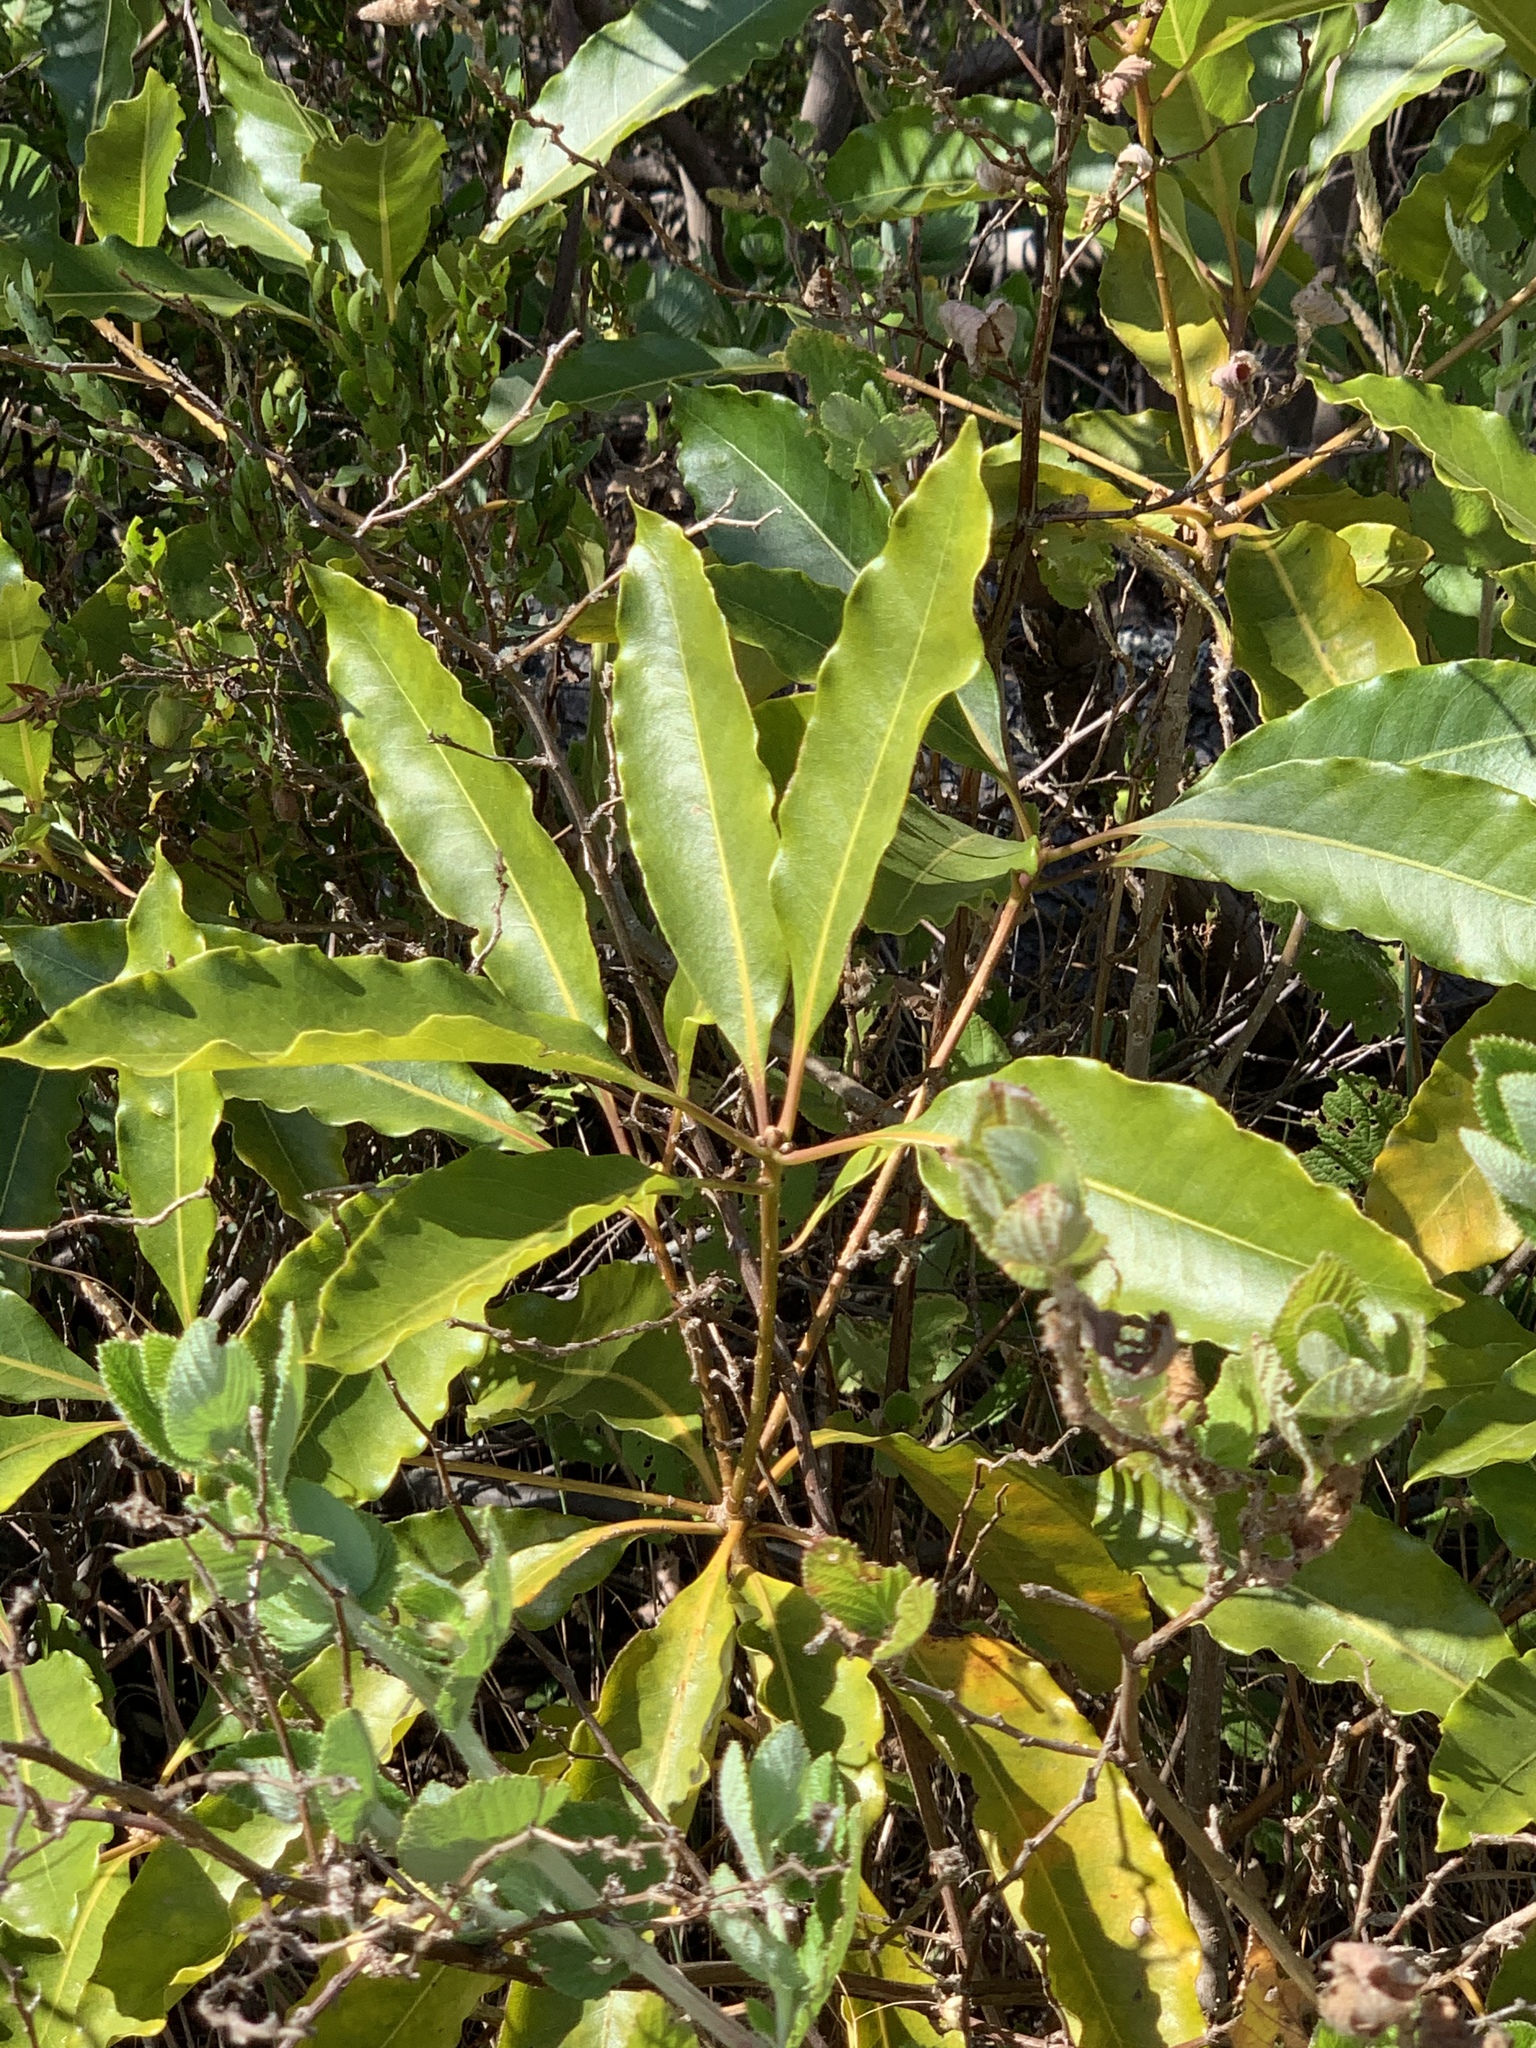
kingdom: Plantae
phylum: Tracheophyta
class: Magnoliopsida
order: Apiales
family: Pittosporaceae
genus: Pittosporum
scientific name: Pittosporum undulatum
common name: Australian cheesewood
